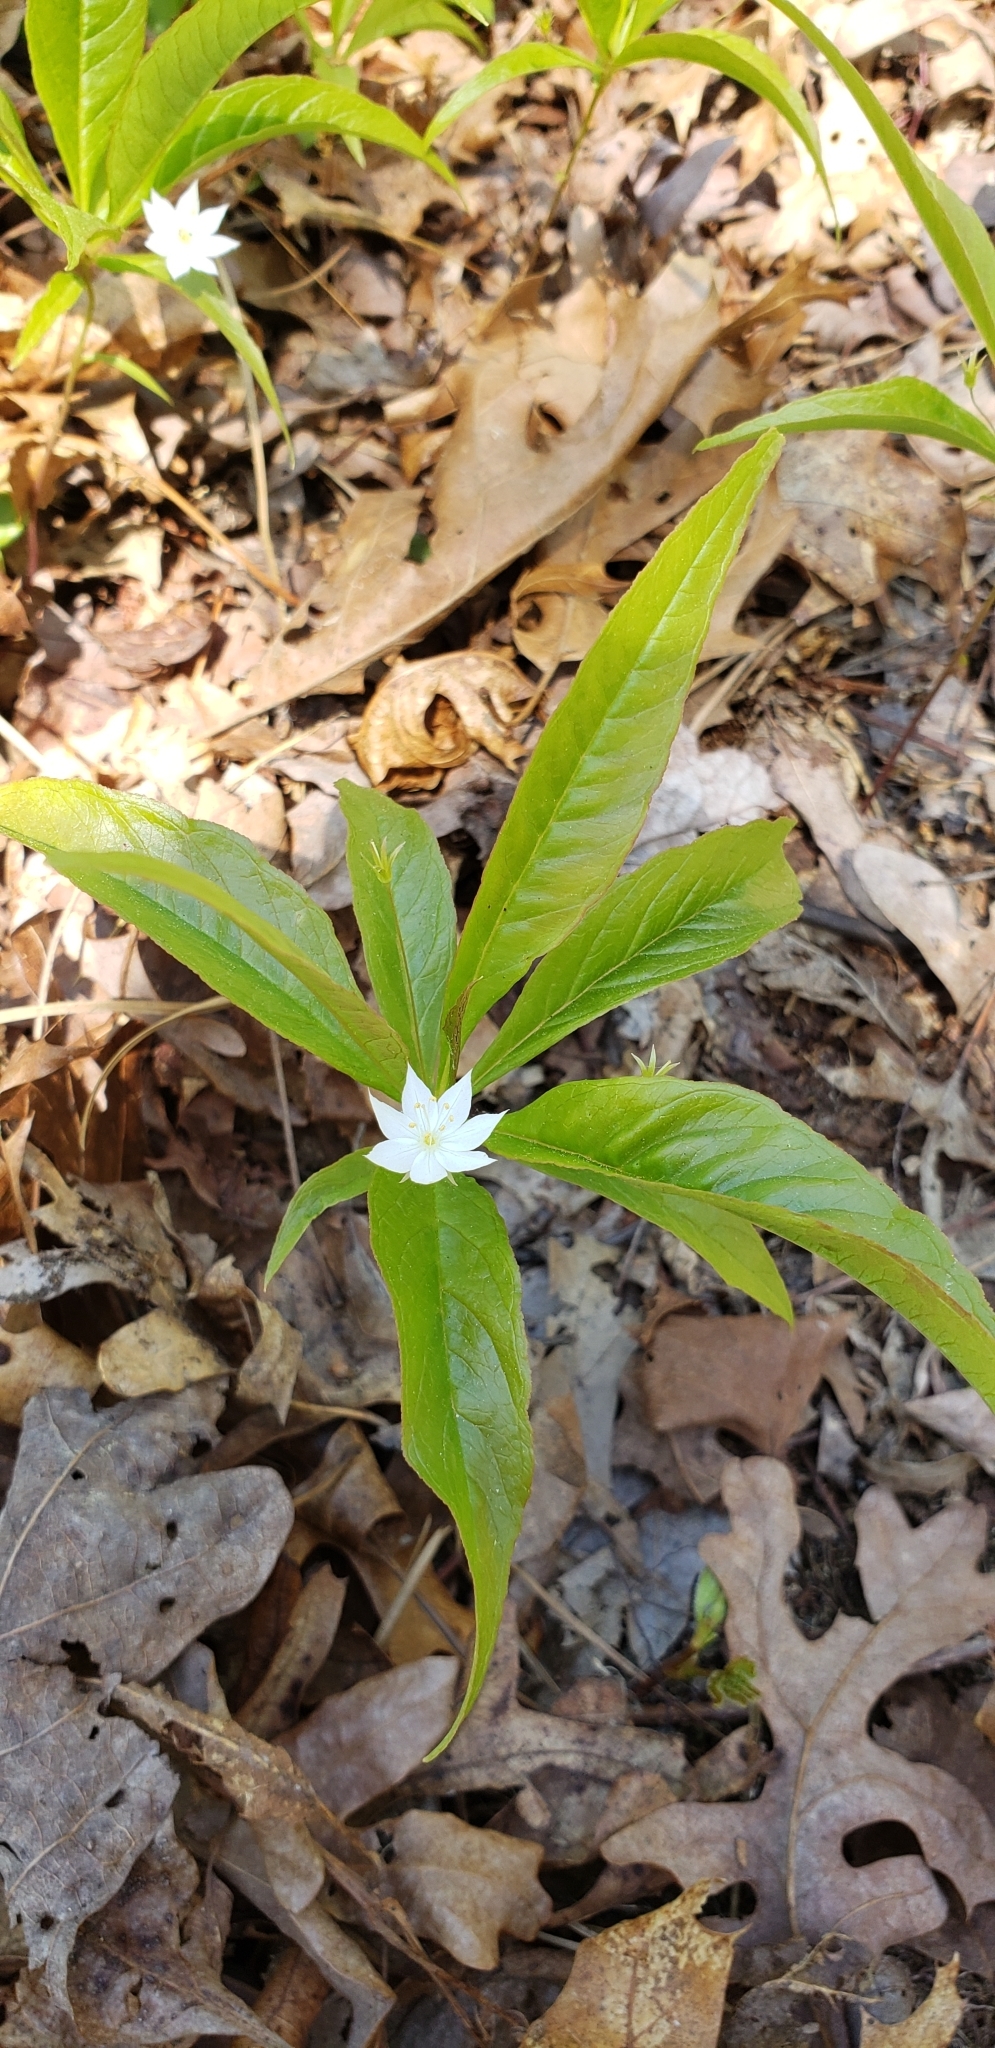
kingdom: Plantae
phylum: Tracheophyta
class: Magnoliopsida
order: Ericales
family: Primulaceae
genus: Lysimachia
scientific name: Lysimachia borealis
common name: American starflower
